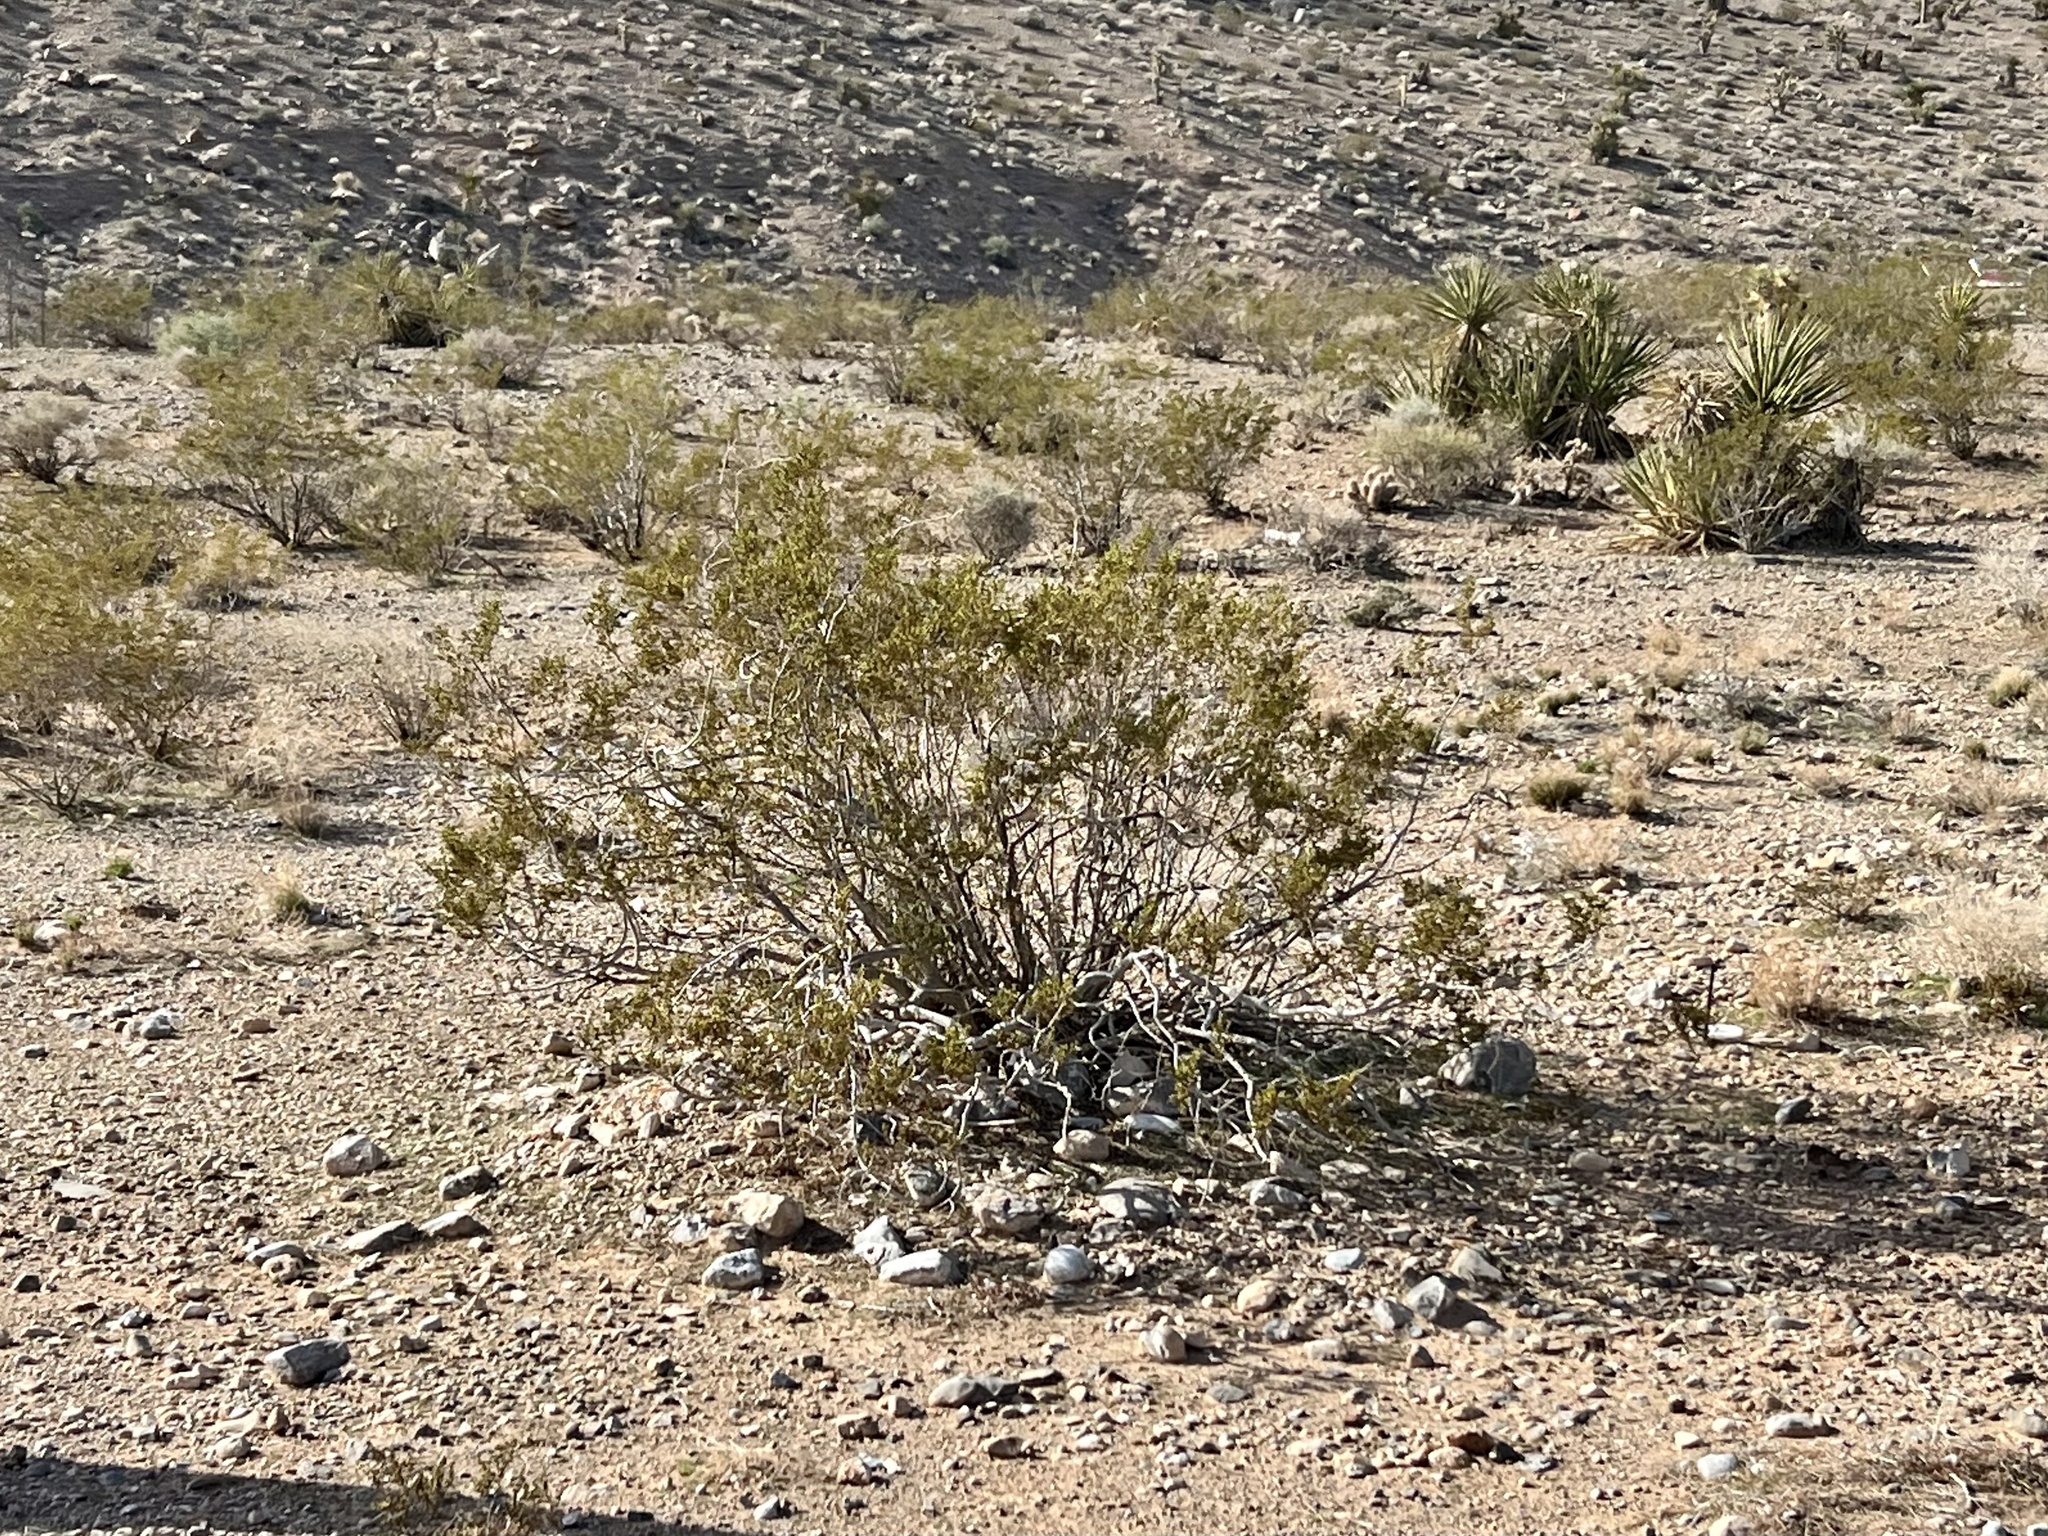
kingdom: Plantae
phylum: Tracheophyta
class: Magnoliopsida
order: Zygophyllales
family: Zygophyllaceae
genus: Larrea
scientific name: Larrea tridentata
